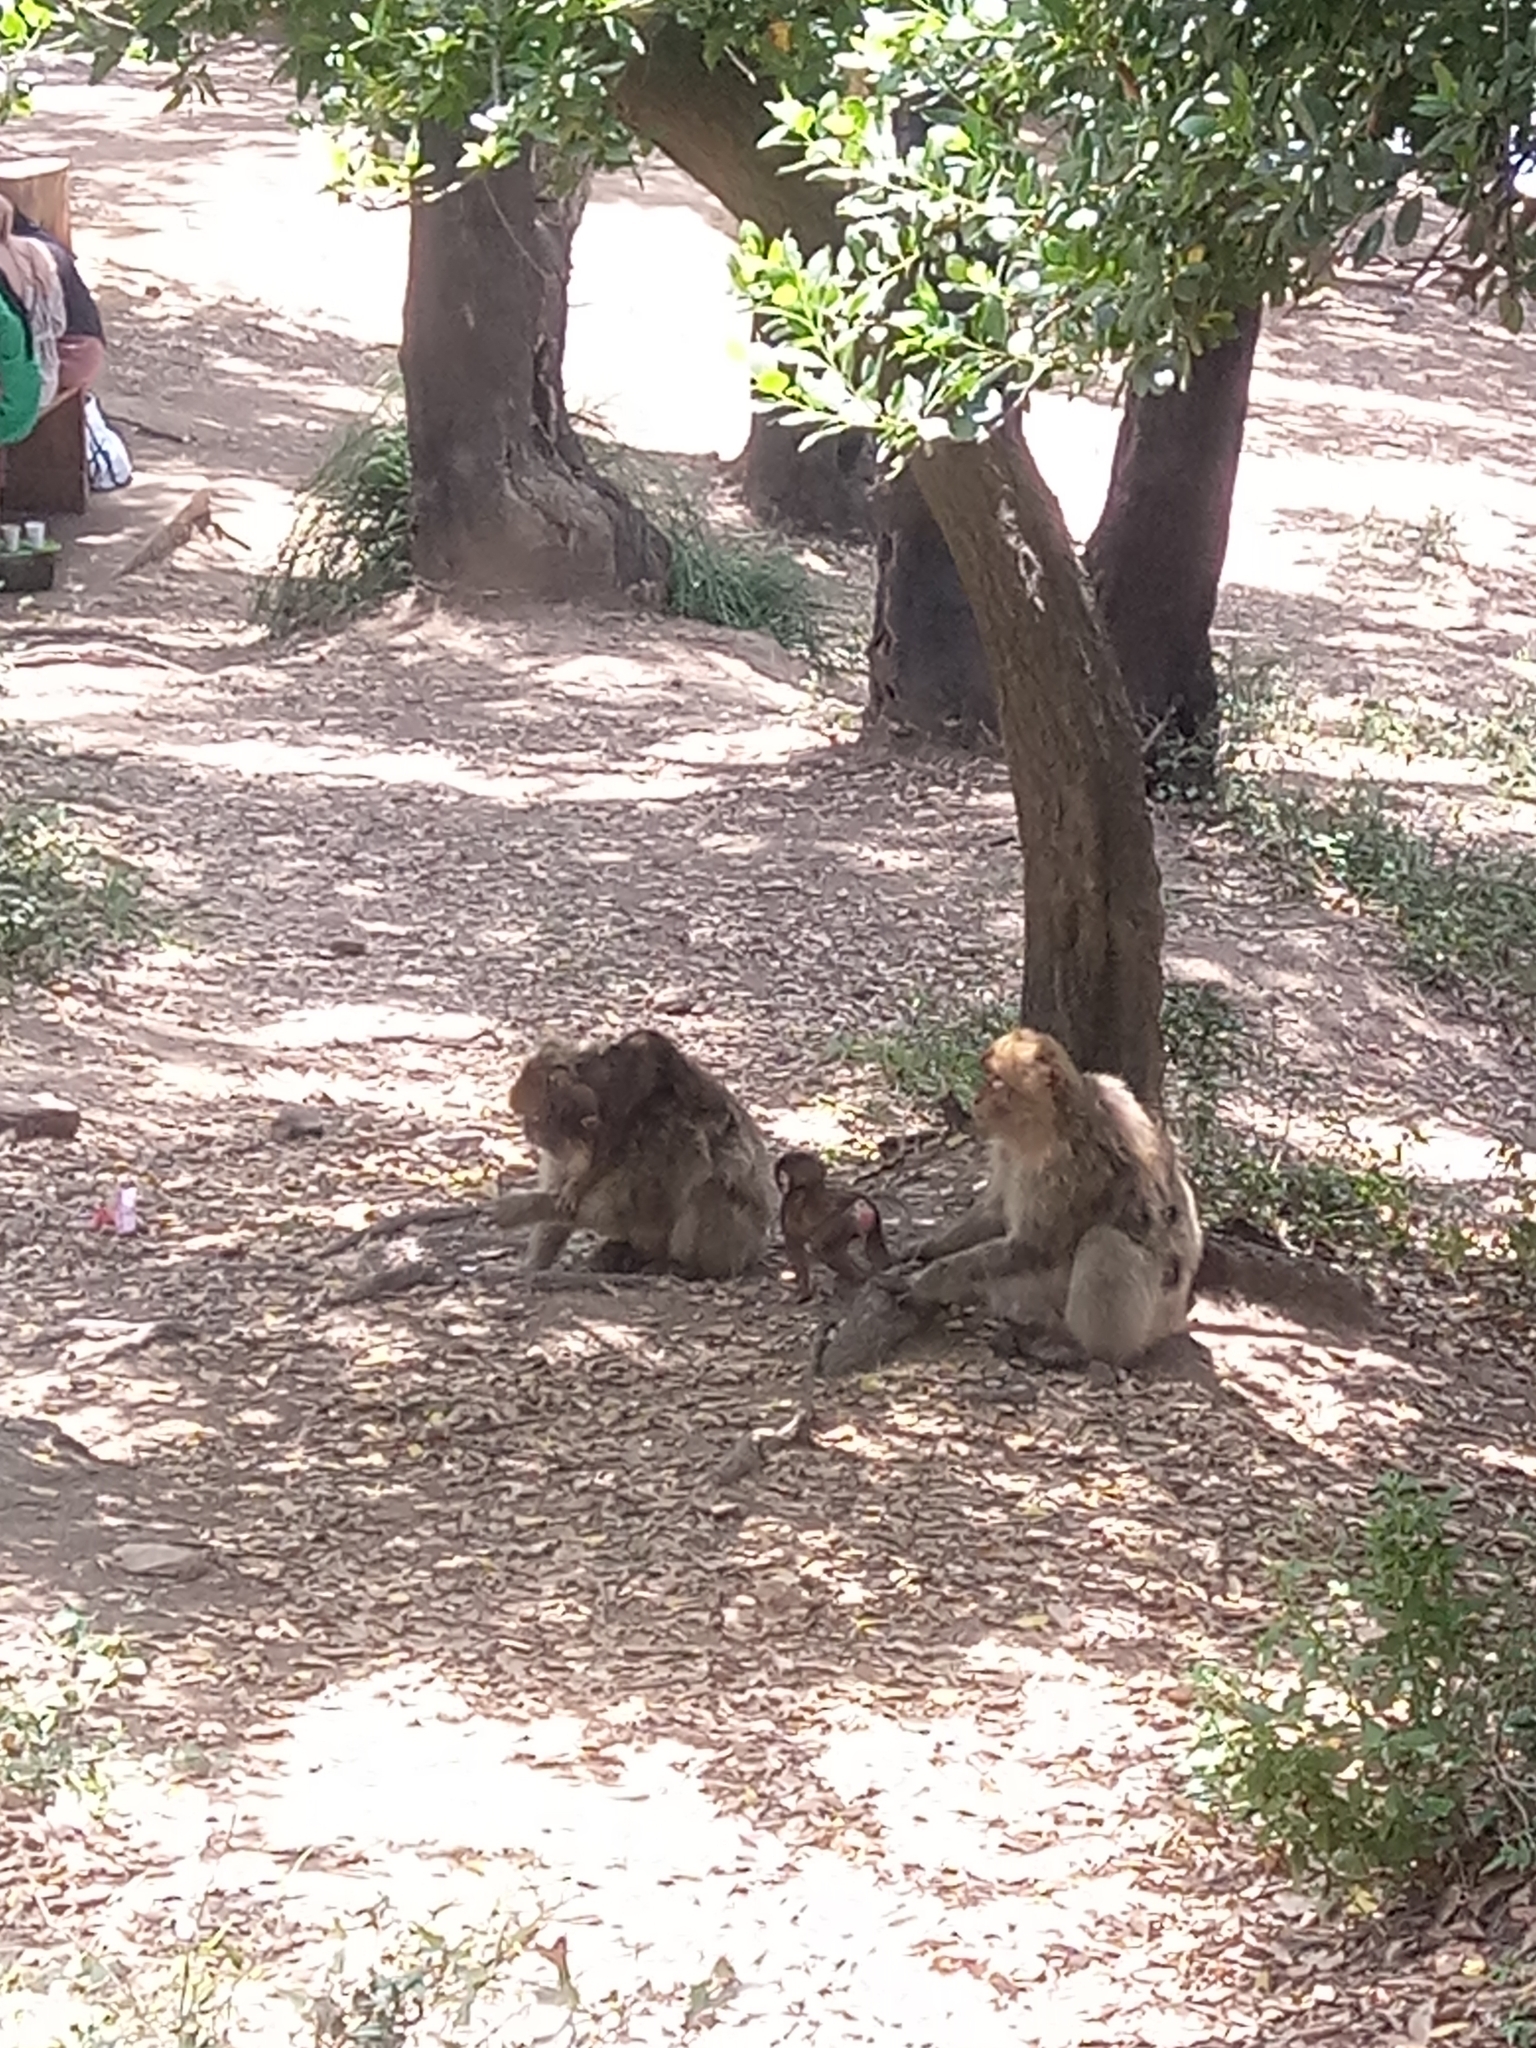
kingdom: Animalia
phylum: Chordata
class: Mammalia
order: Primates
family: Cercopithecidae
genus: Macaca
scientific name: Macaca sylvanus
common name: Barbary macaque
